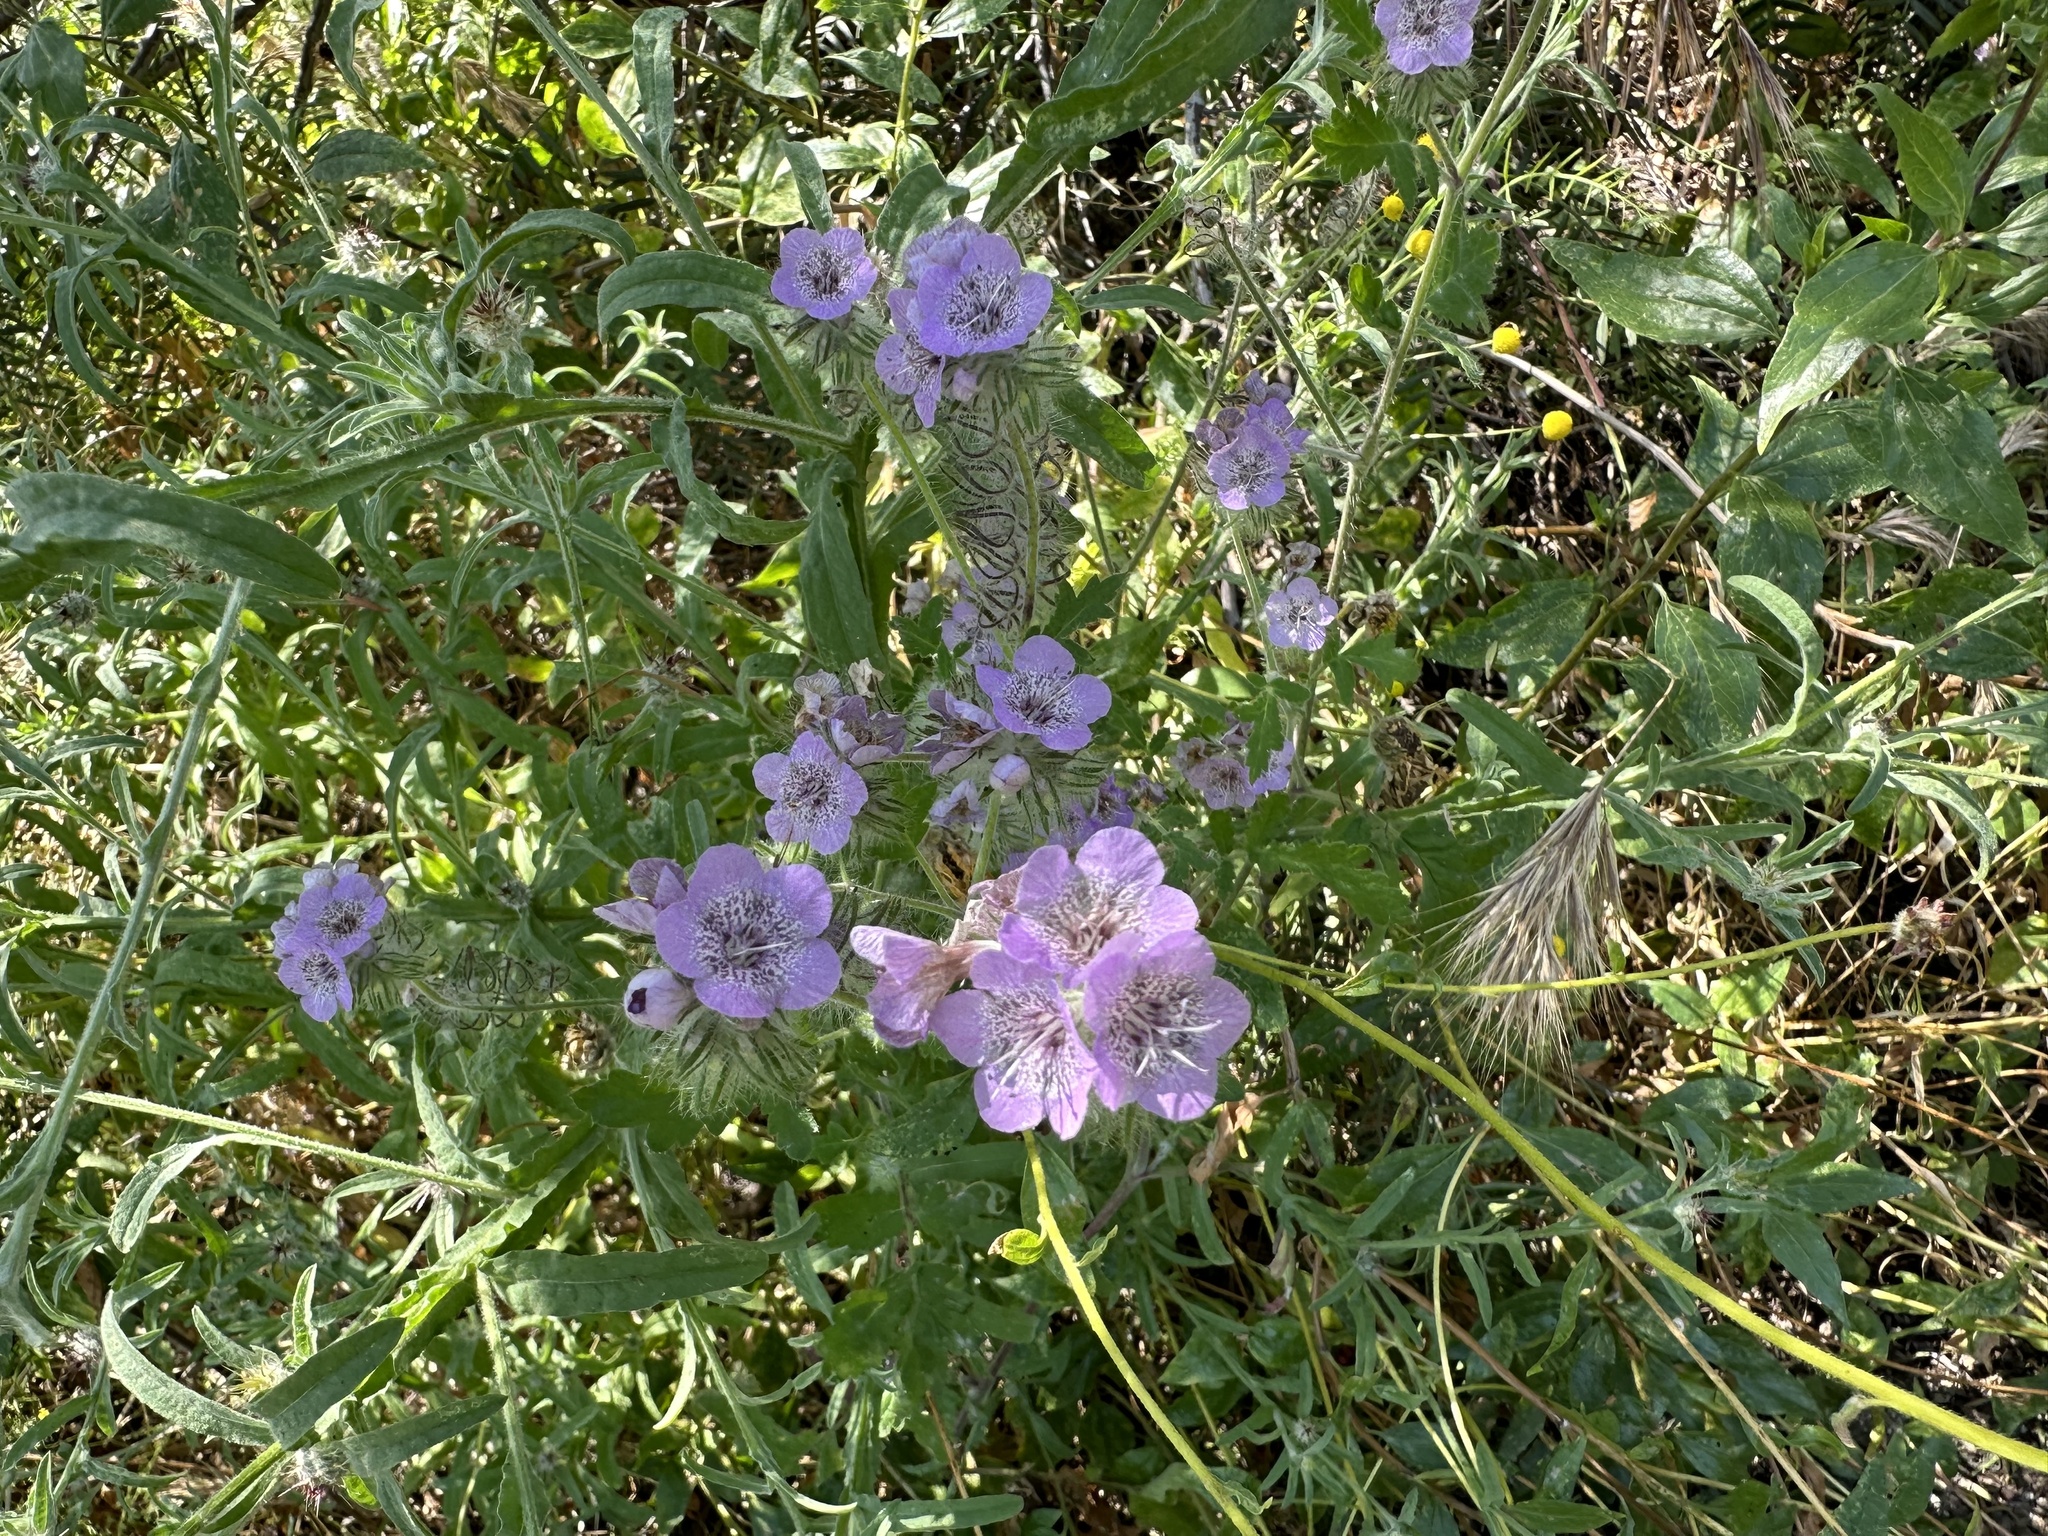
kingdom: Plantae
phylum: Tracheophyta
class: Magnoliopsida
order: Boraginales
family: Hydrophyllaceae
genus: Phacelia
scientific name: Phacelia cicutaria
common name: Caterpillar phacelia
